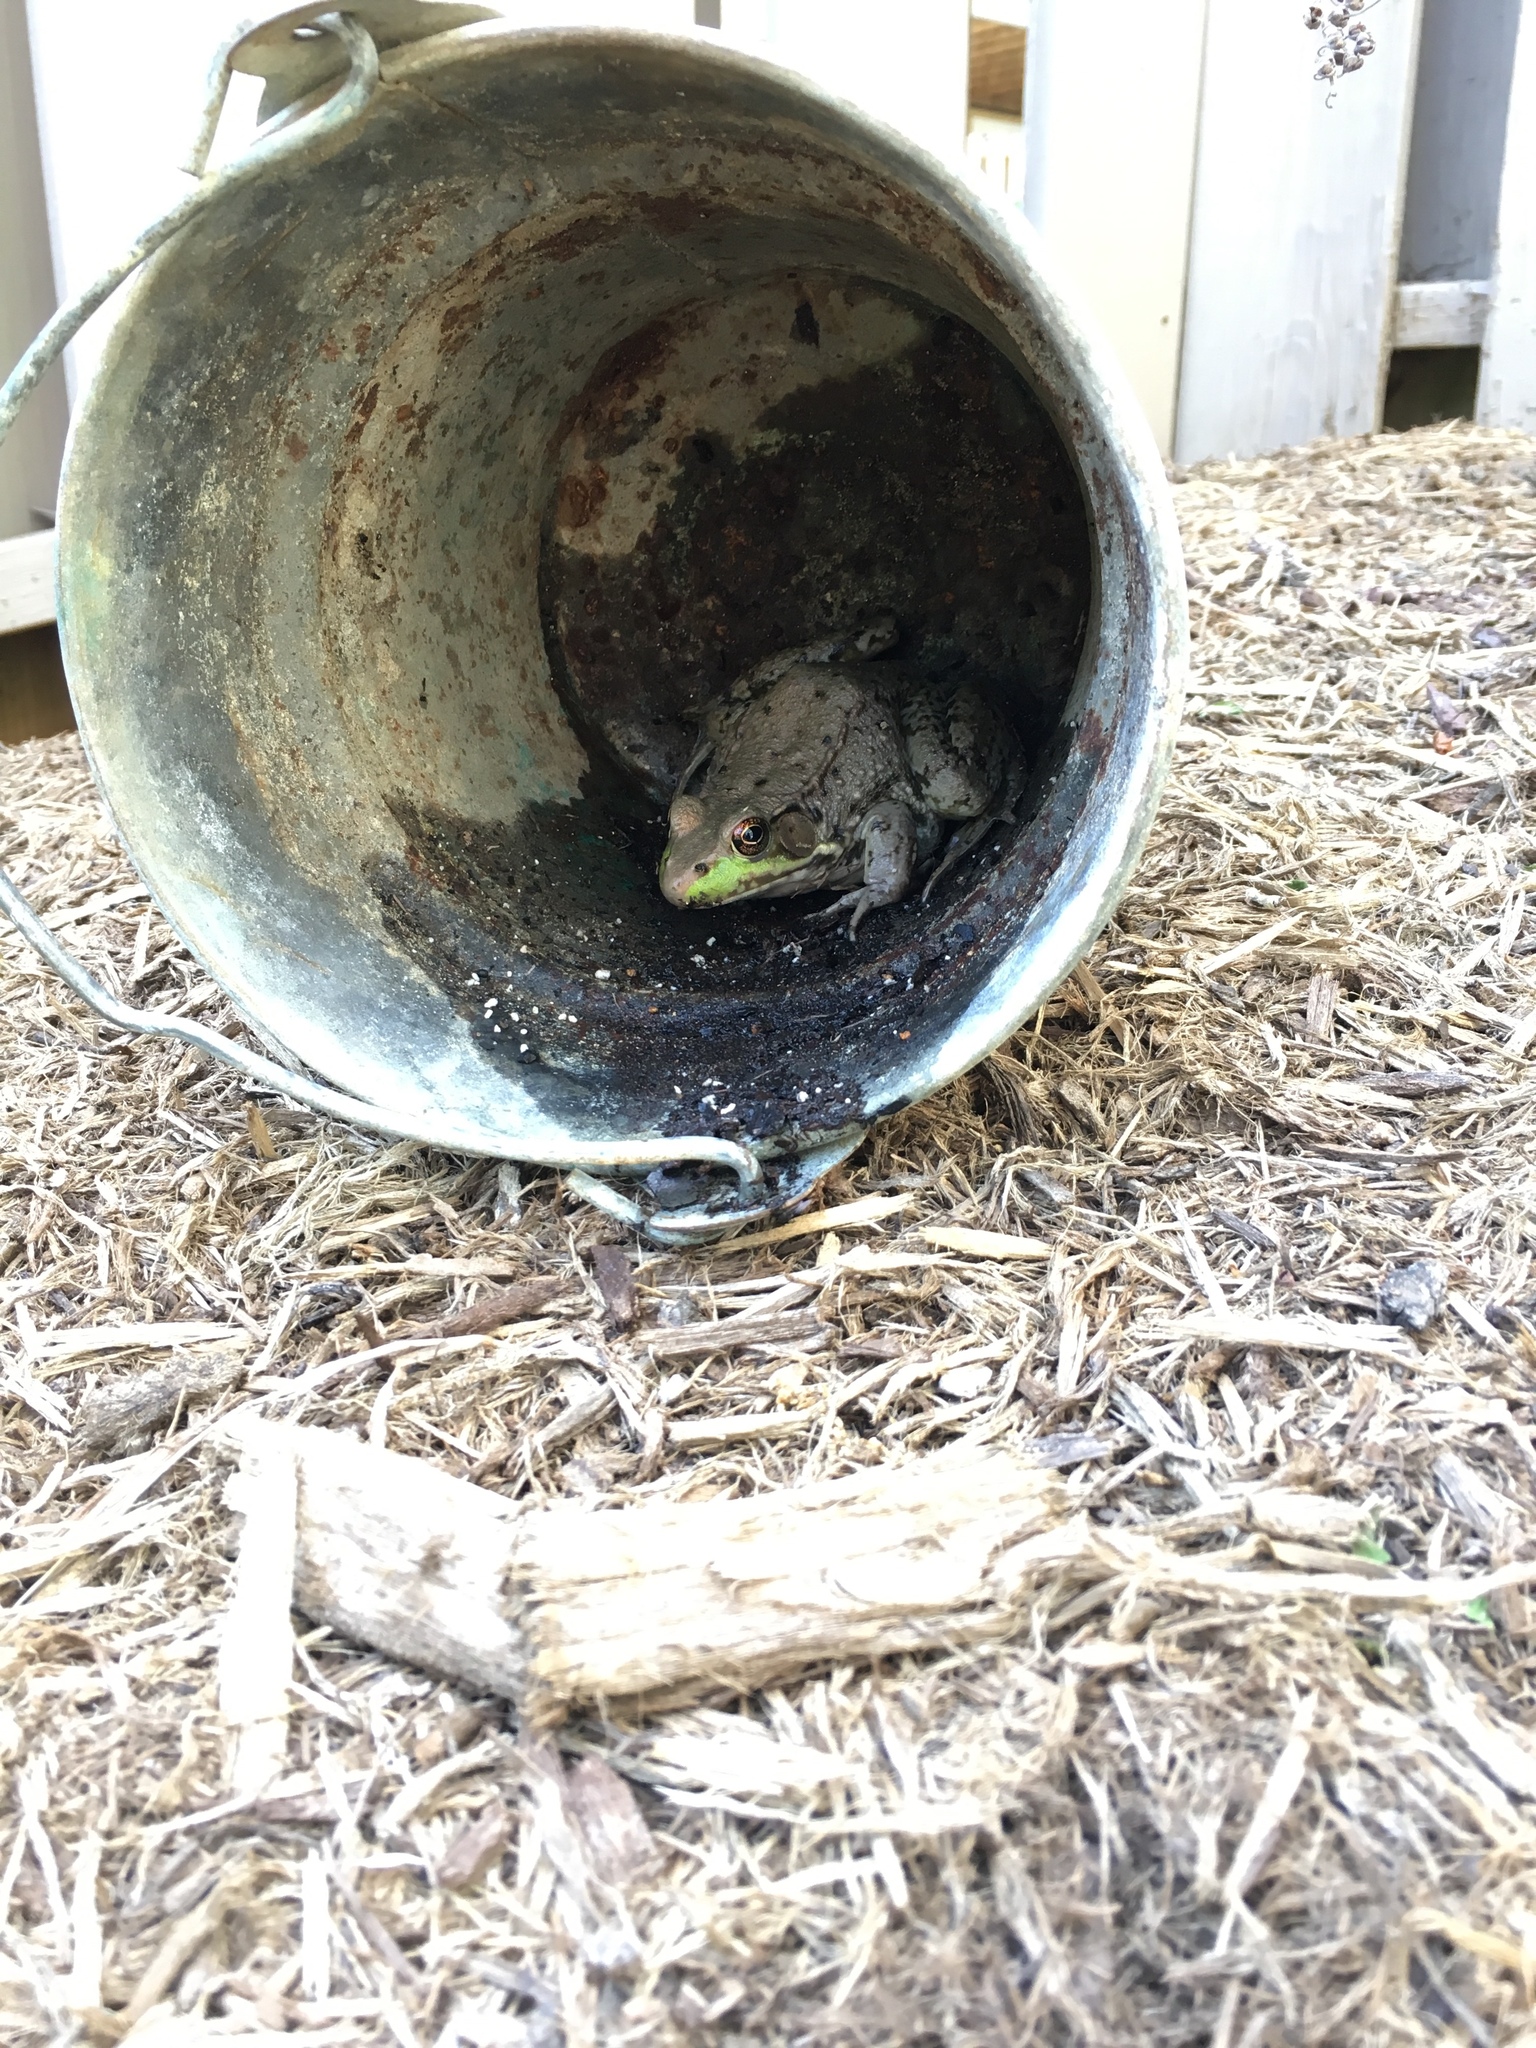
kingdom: Animalia
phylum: Chordata
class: Amphibia
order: Anura
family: Ranidae
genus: Lithobates
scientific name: Lithobates clamitans
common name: Green frog
